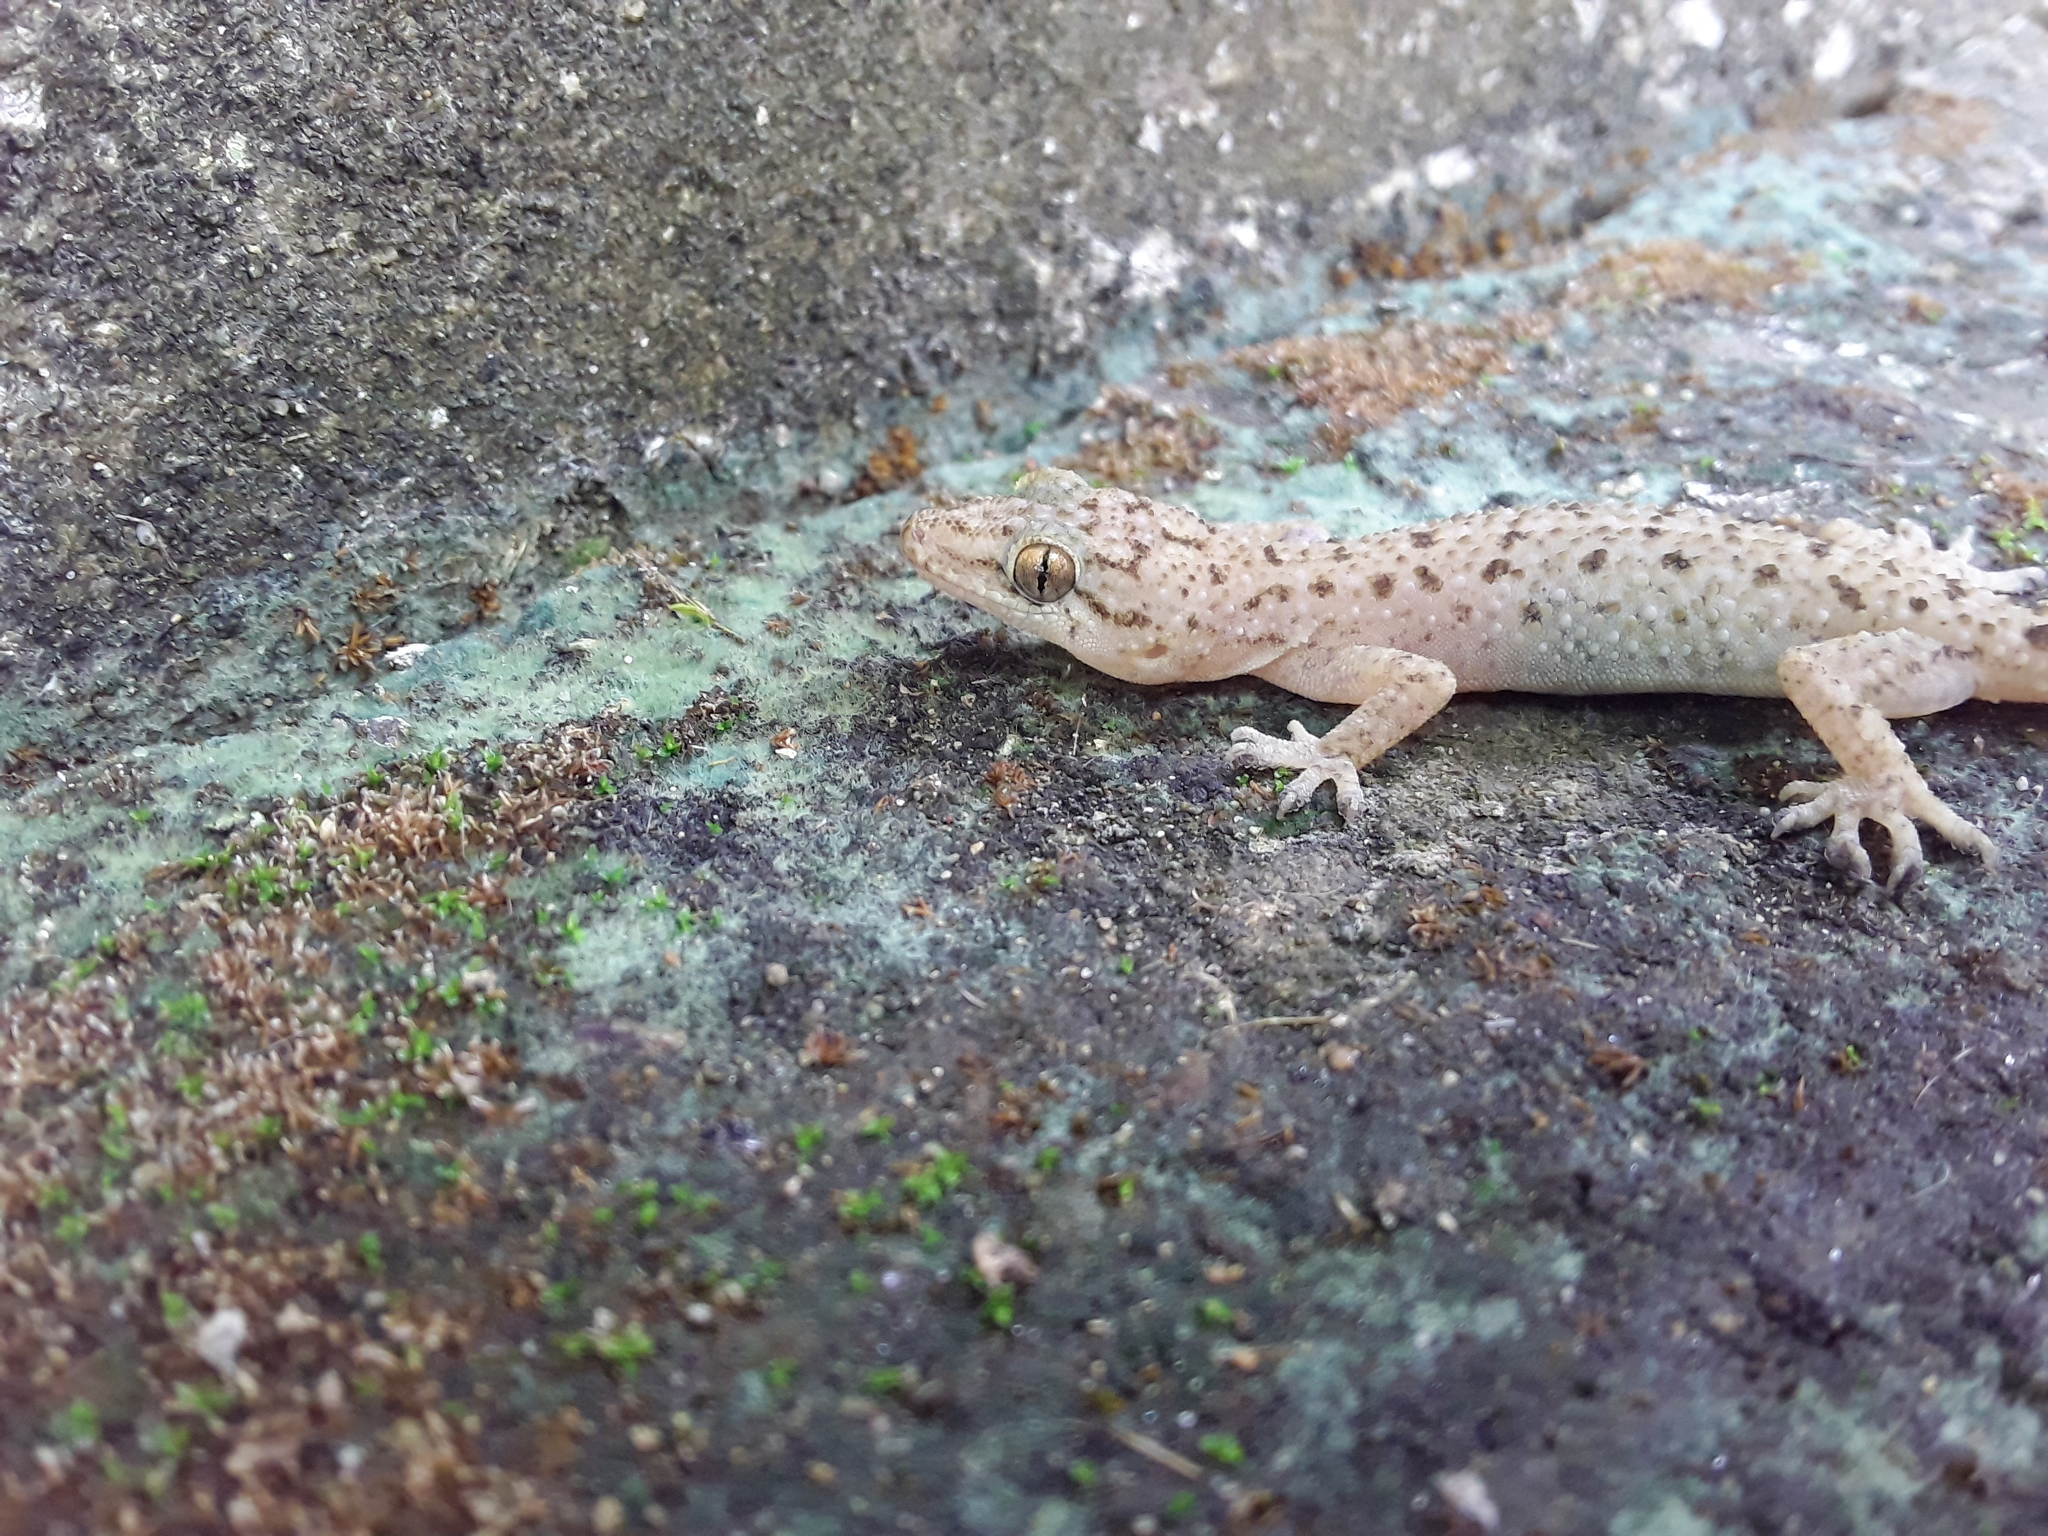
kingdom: Animalia
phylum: Chordata
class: Squamata
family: Gekkonidae
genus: Hemidactylus
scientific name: Hemidactylus parvimaculatus
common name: Spotted house gecko
